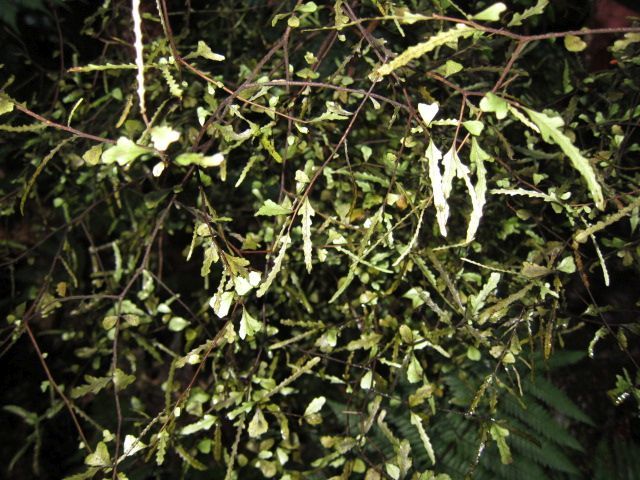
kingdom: Plantae
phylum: Tracheophyta
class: Magnoliopsida
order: Oxalidales
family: Elaeocarpaceae
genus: Elaeocarpus
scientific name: Elaeocarpus hookerianus
